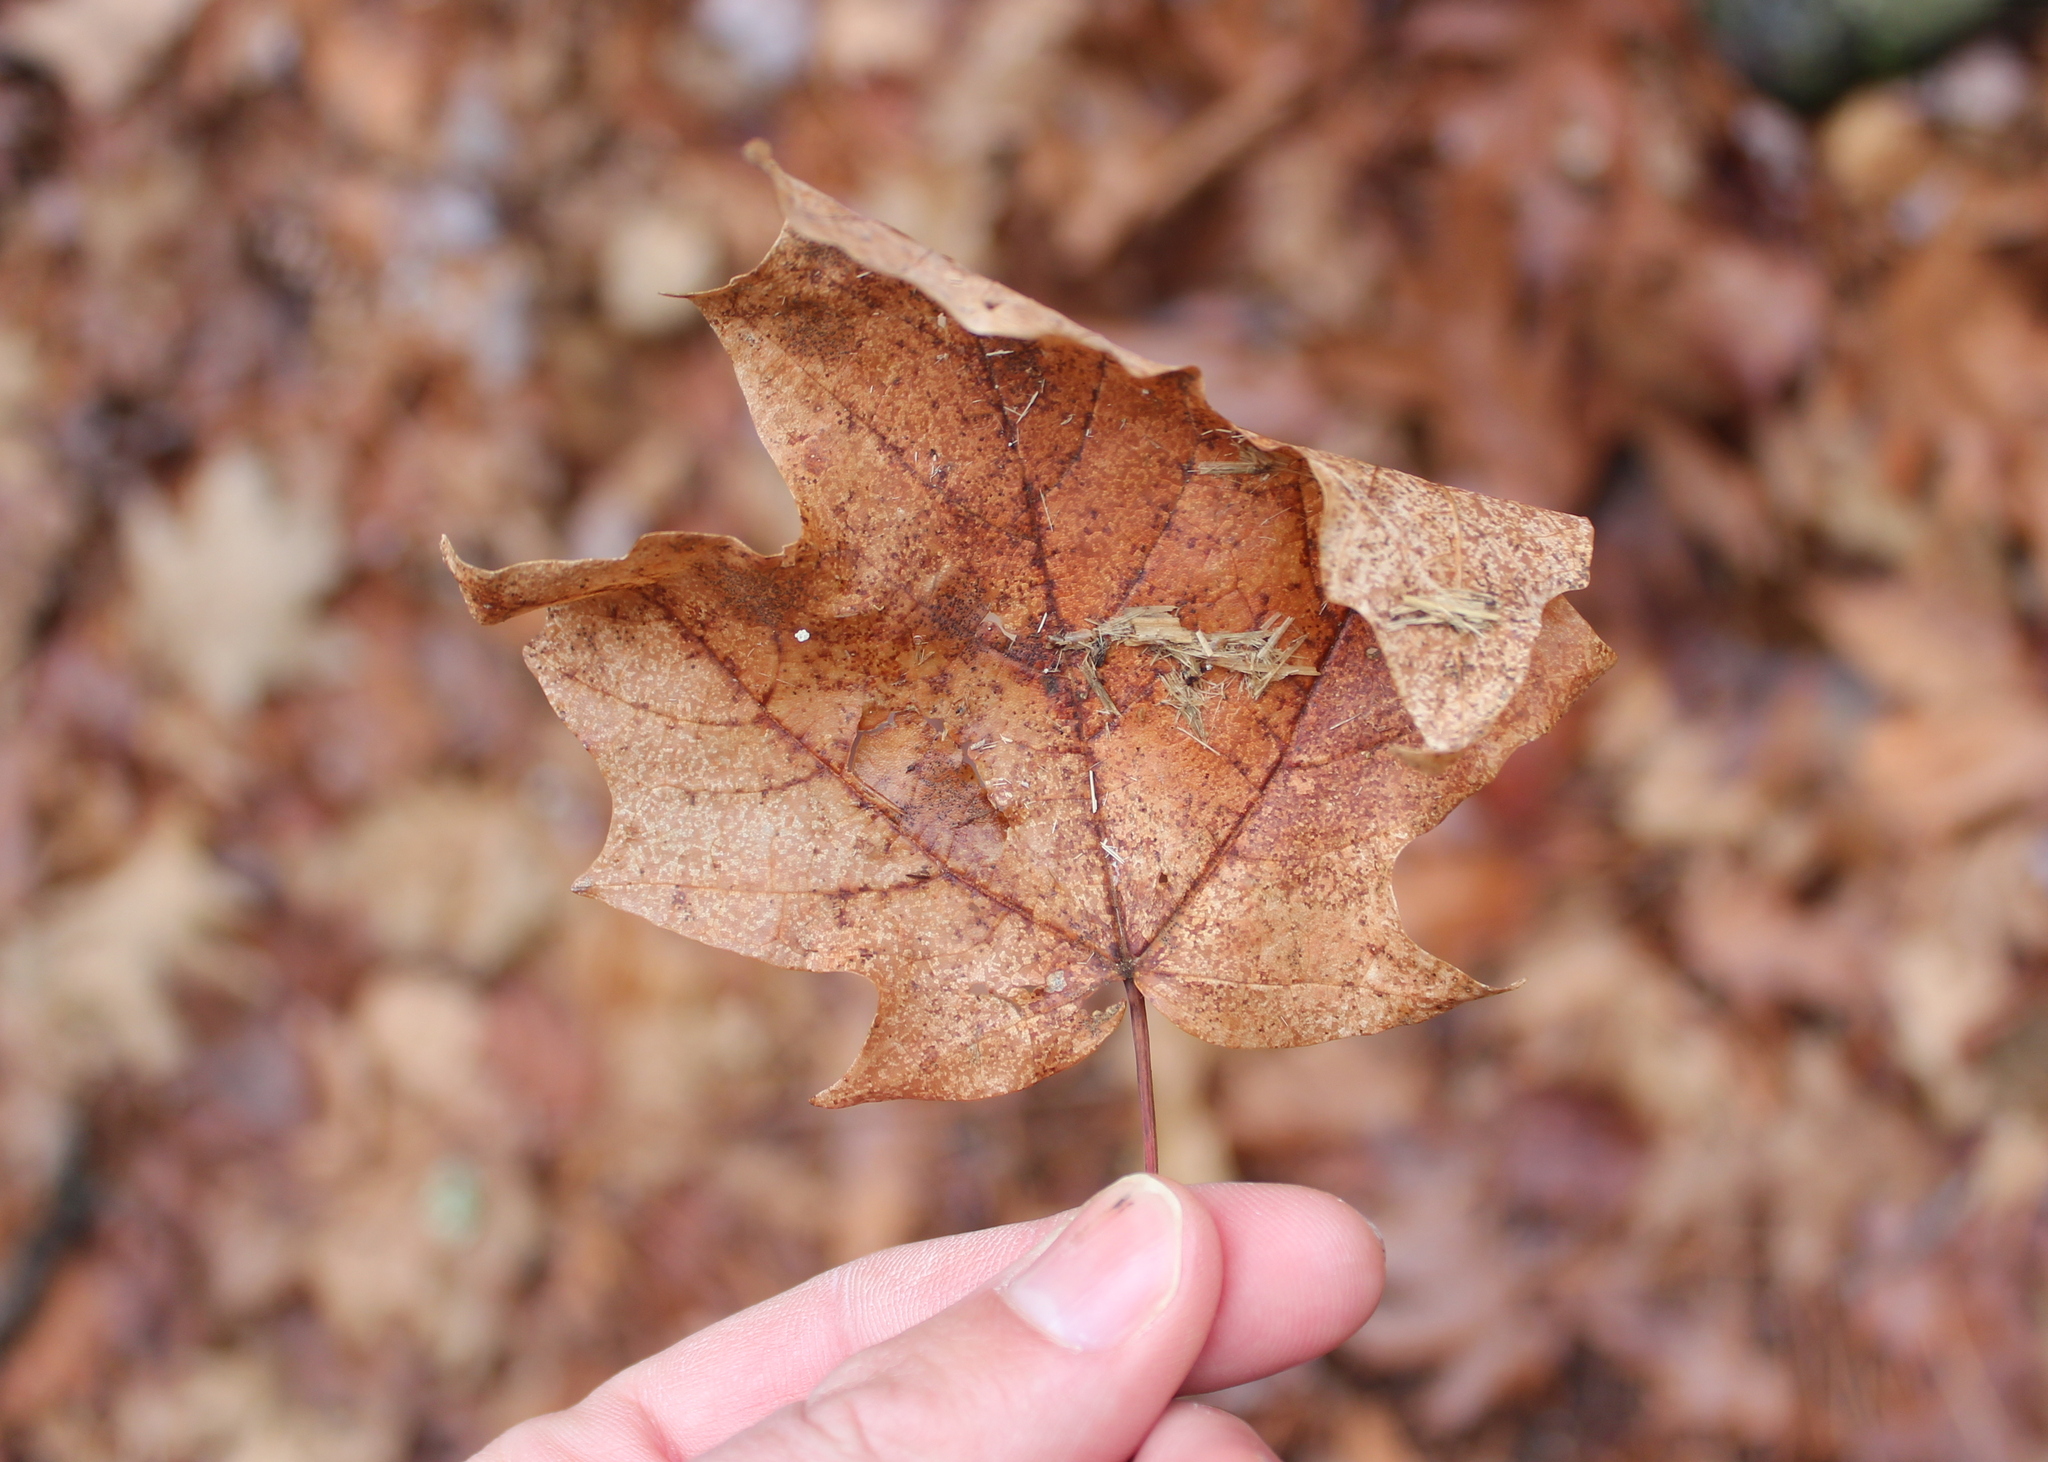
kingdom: Plantae
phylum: Tracheophyta
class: Magnoliopsida
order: Sapindales
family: Sapindaceae
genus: Acer
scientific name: Acer saccharum
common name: Sugar maple
